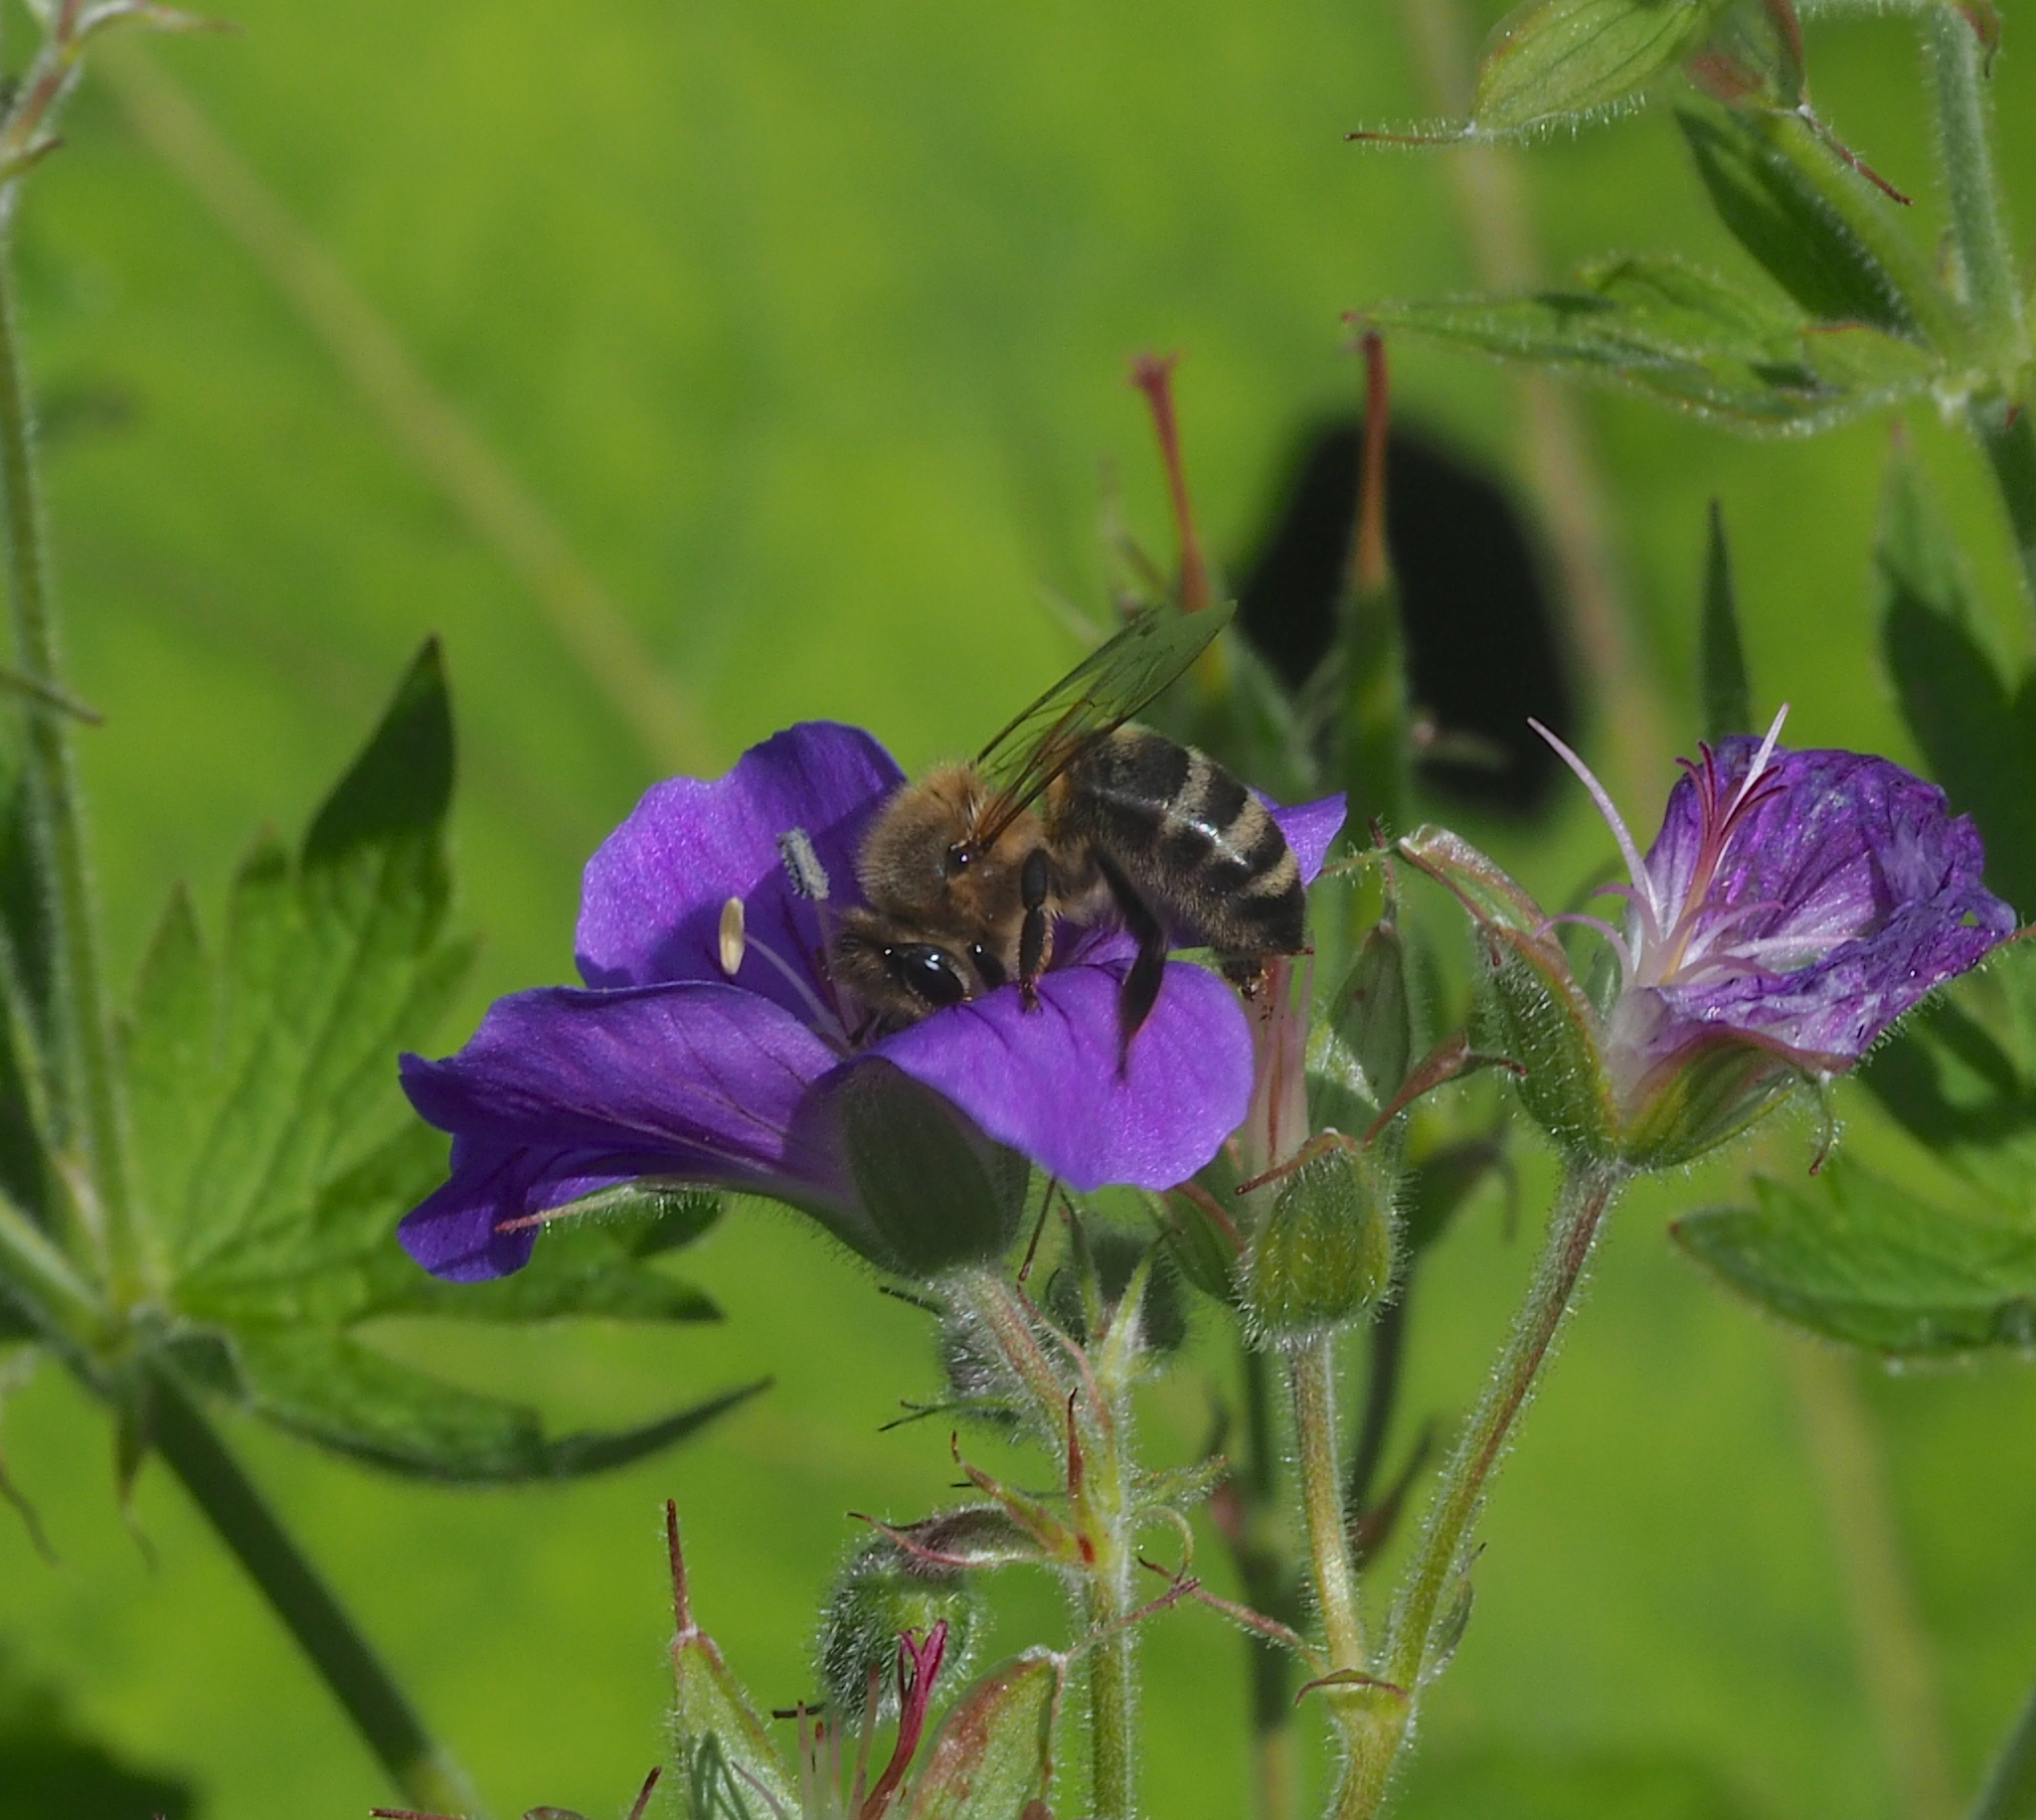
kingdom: Animalia
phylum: Arthropoda
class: Insecta
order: Hymenoptera
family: Apidae
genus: Apis
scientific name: Apis mellifera
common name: Honey bee
